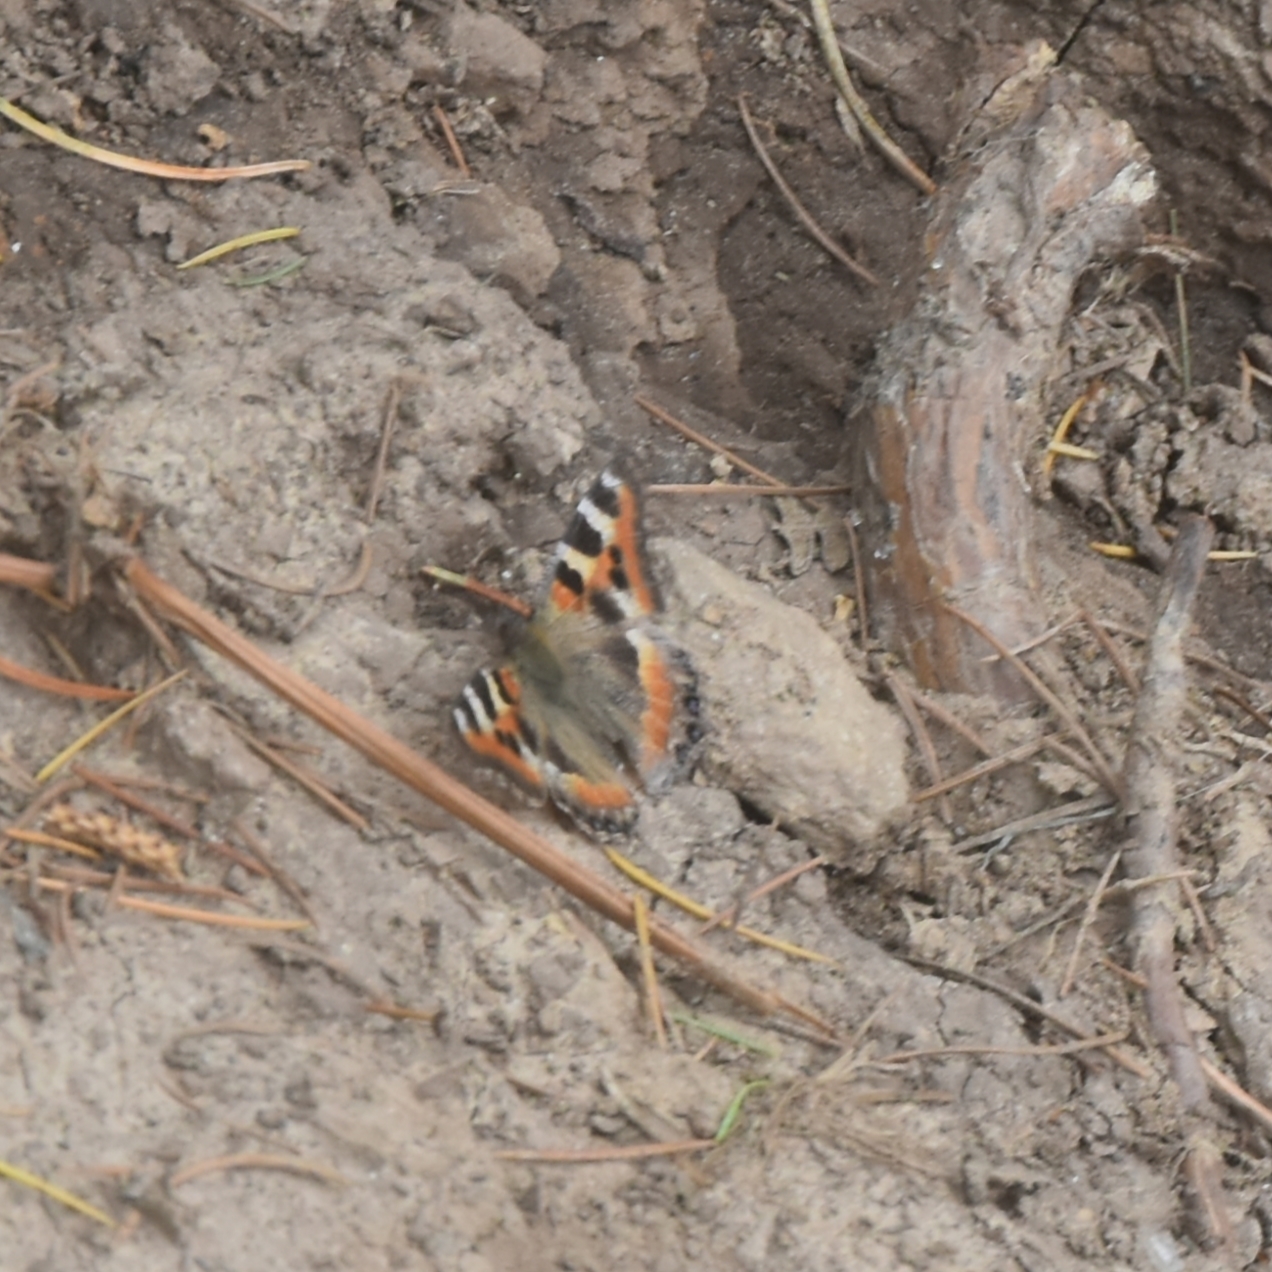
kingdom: Animalia
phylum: Arthropoda
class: Insecta
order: Lepidoptera
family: Nymphalidae
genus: Aglais
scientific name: Aglais caschmirensis
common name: Indian tortoiseshell
